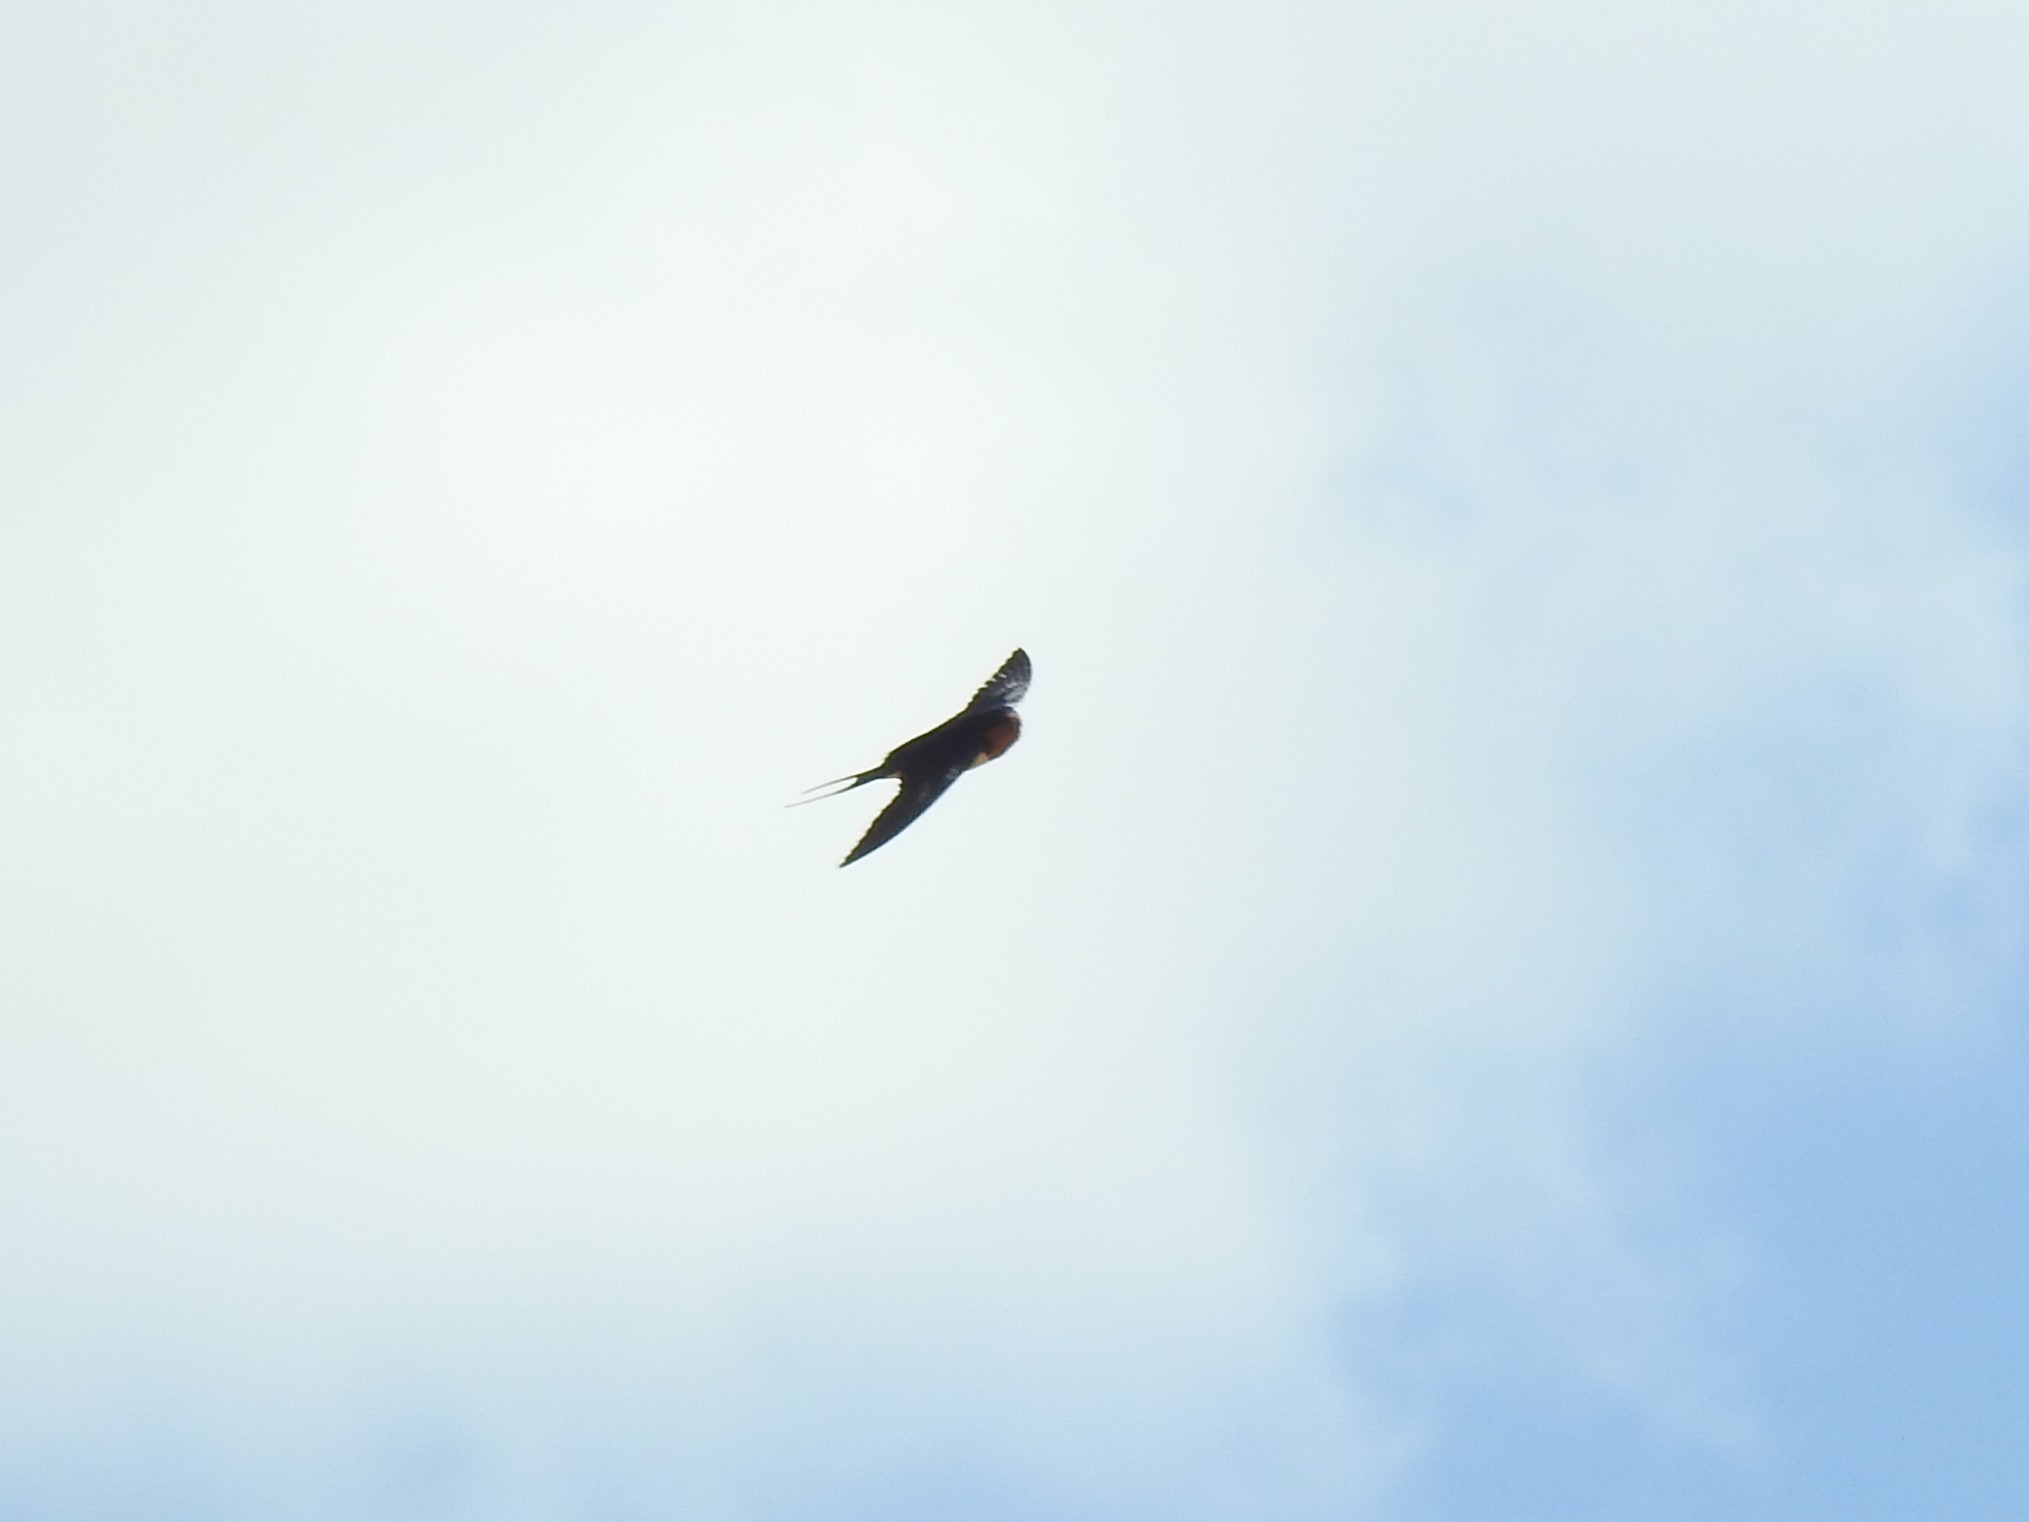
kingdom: Animalia
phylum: Chordata
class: Aves
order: Passeriformes
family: Hirundinidae
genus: Hirundo
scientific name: Hirundo rustica
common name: Barn swallow
